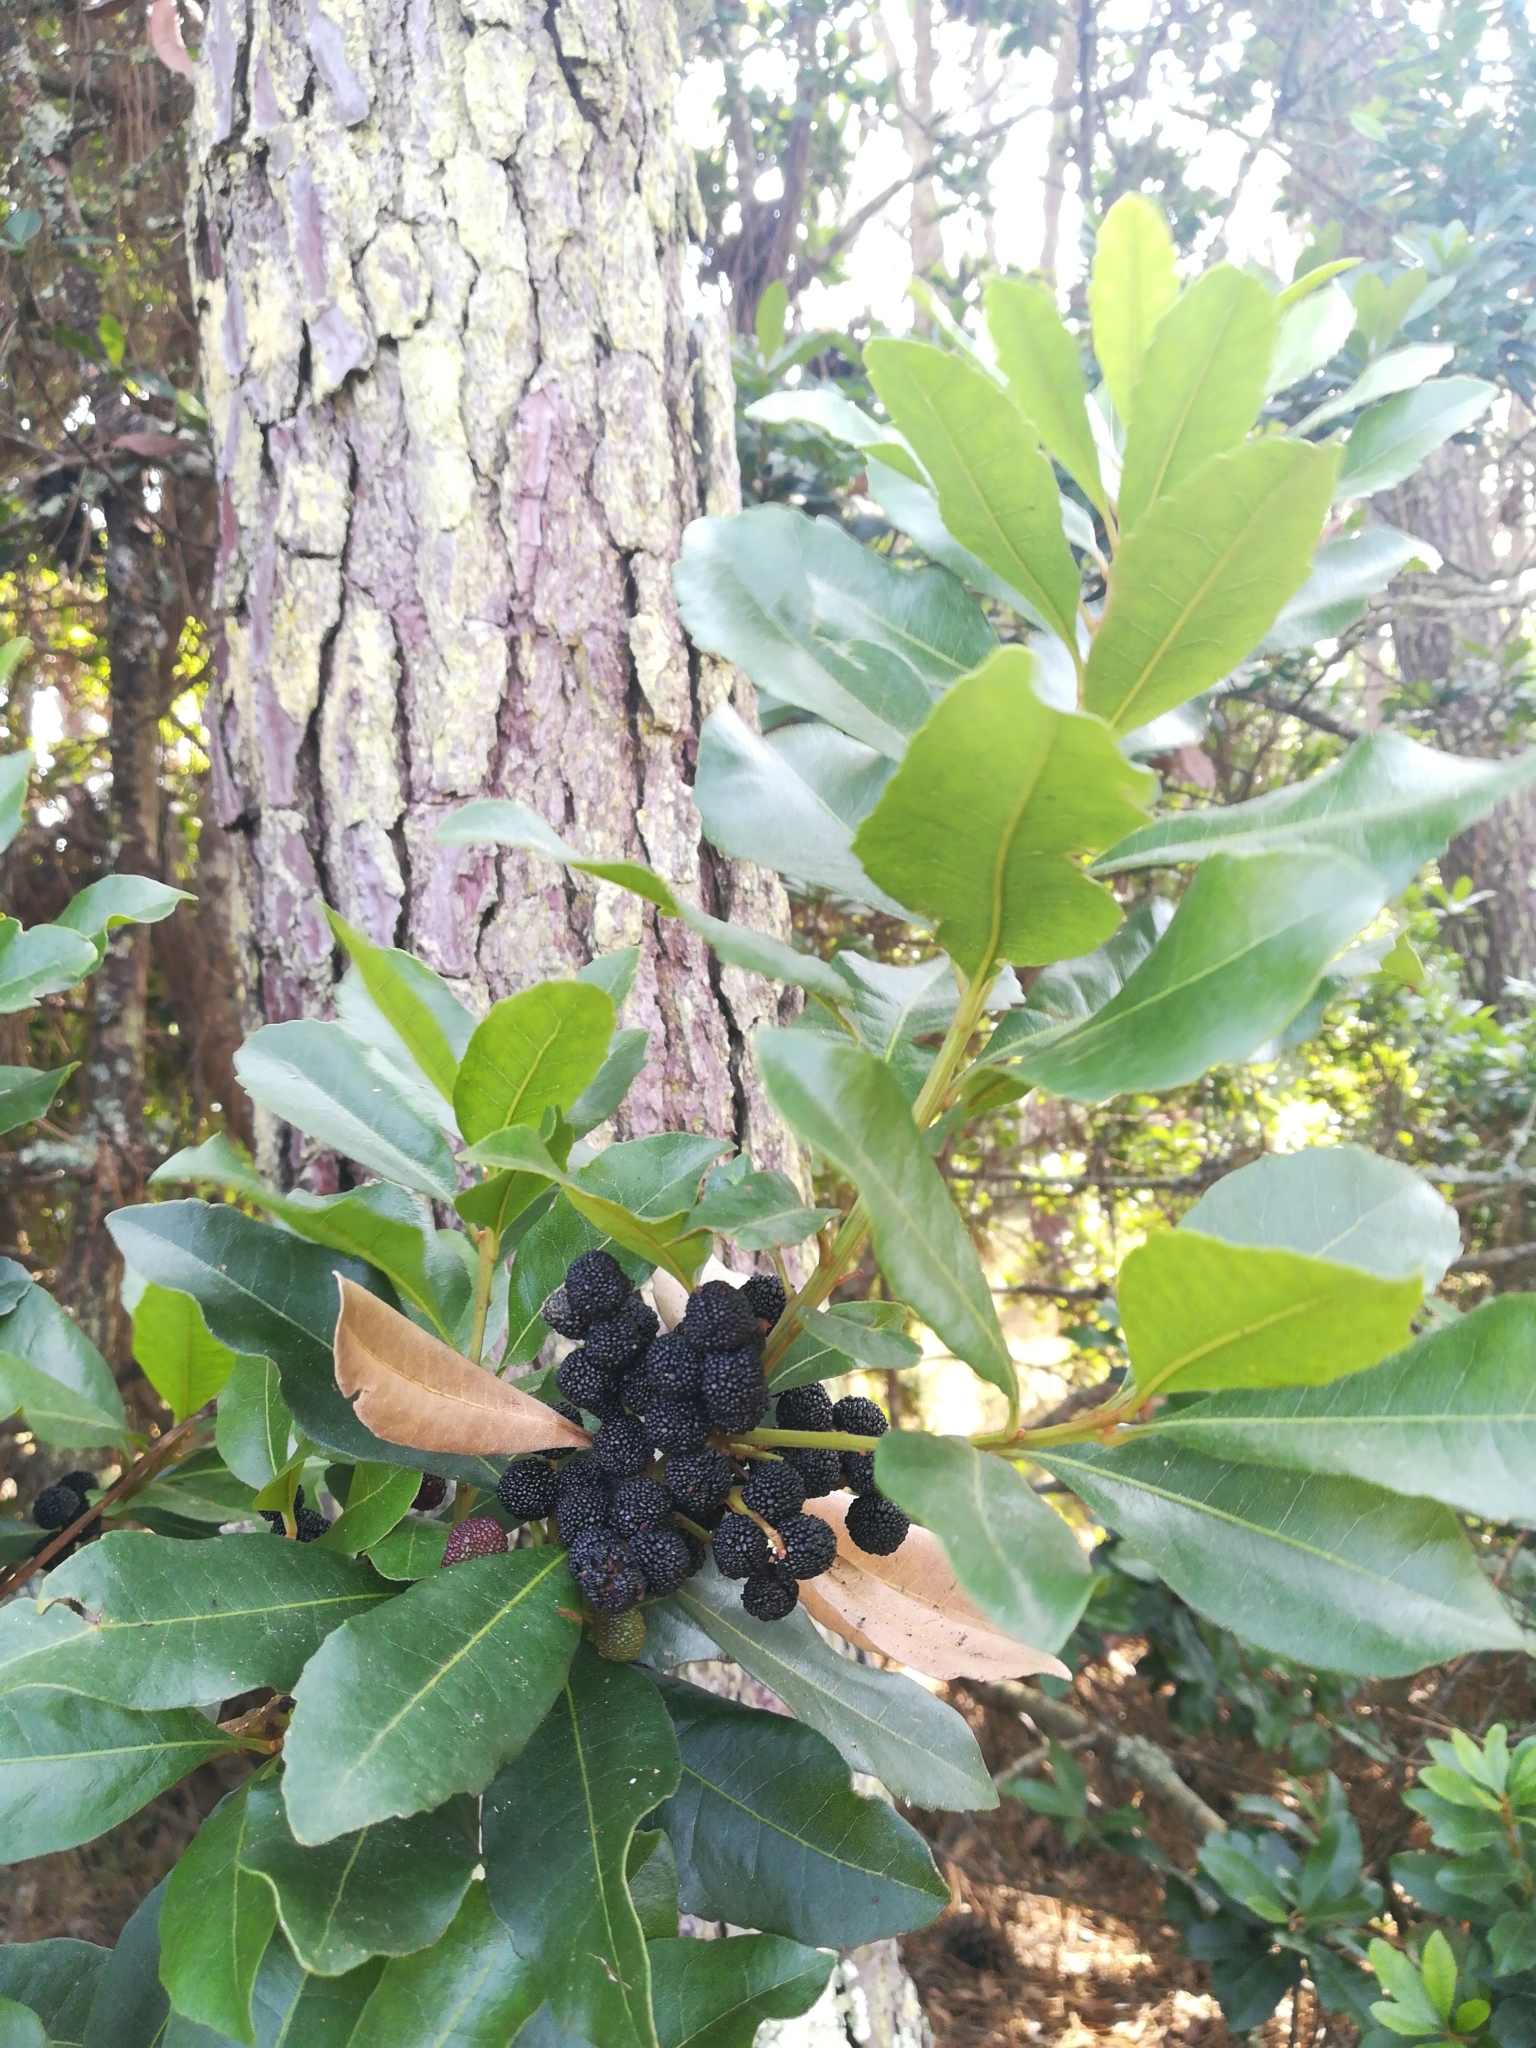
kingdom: Plantae
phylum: Tracheophyta
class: Magnoliopsida
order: Fagales
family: Myricaceae
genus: Morella
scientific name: Morella faya
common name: Firetree
